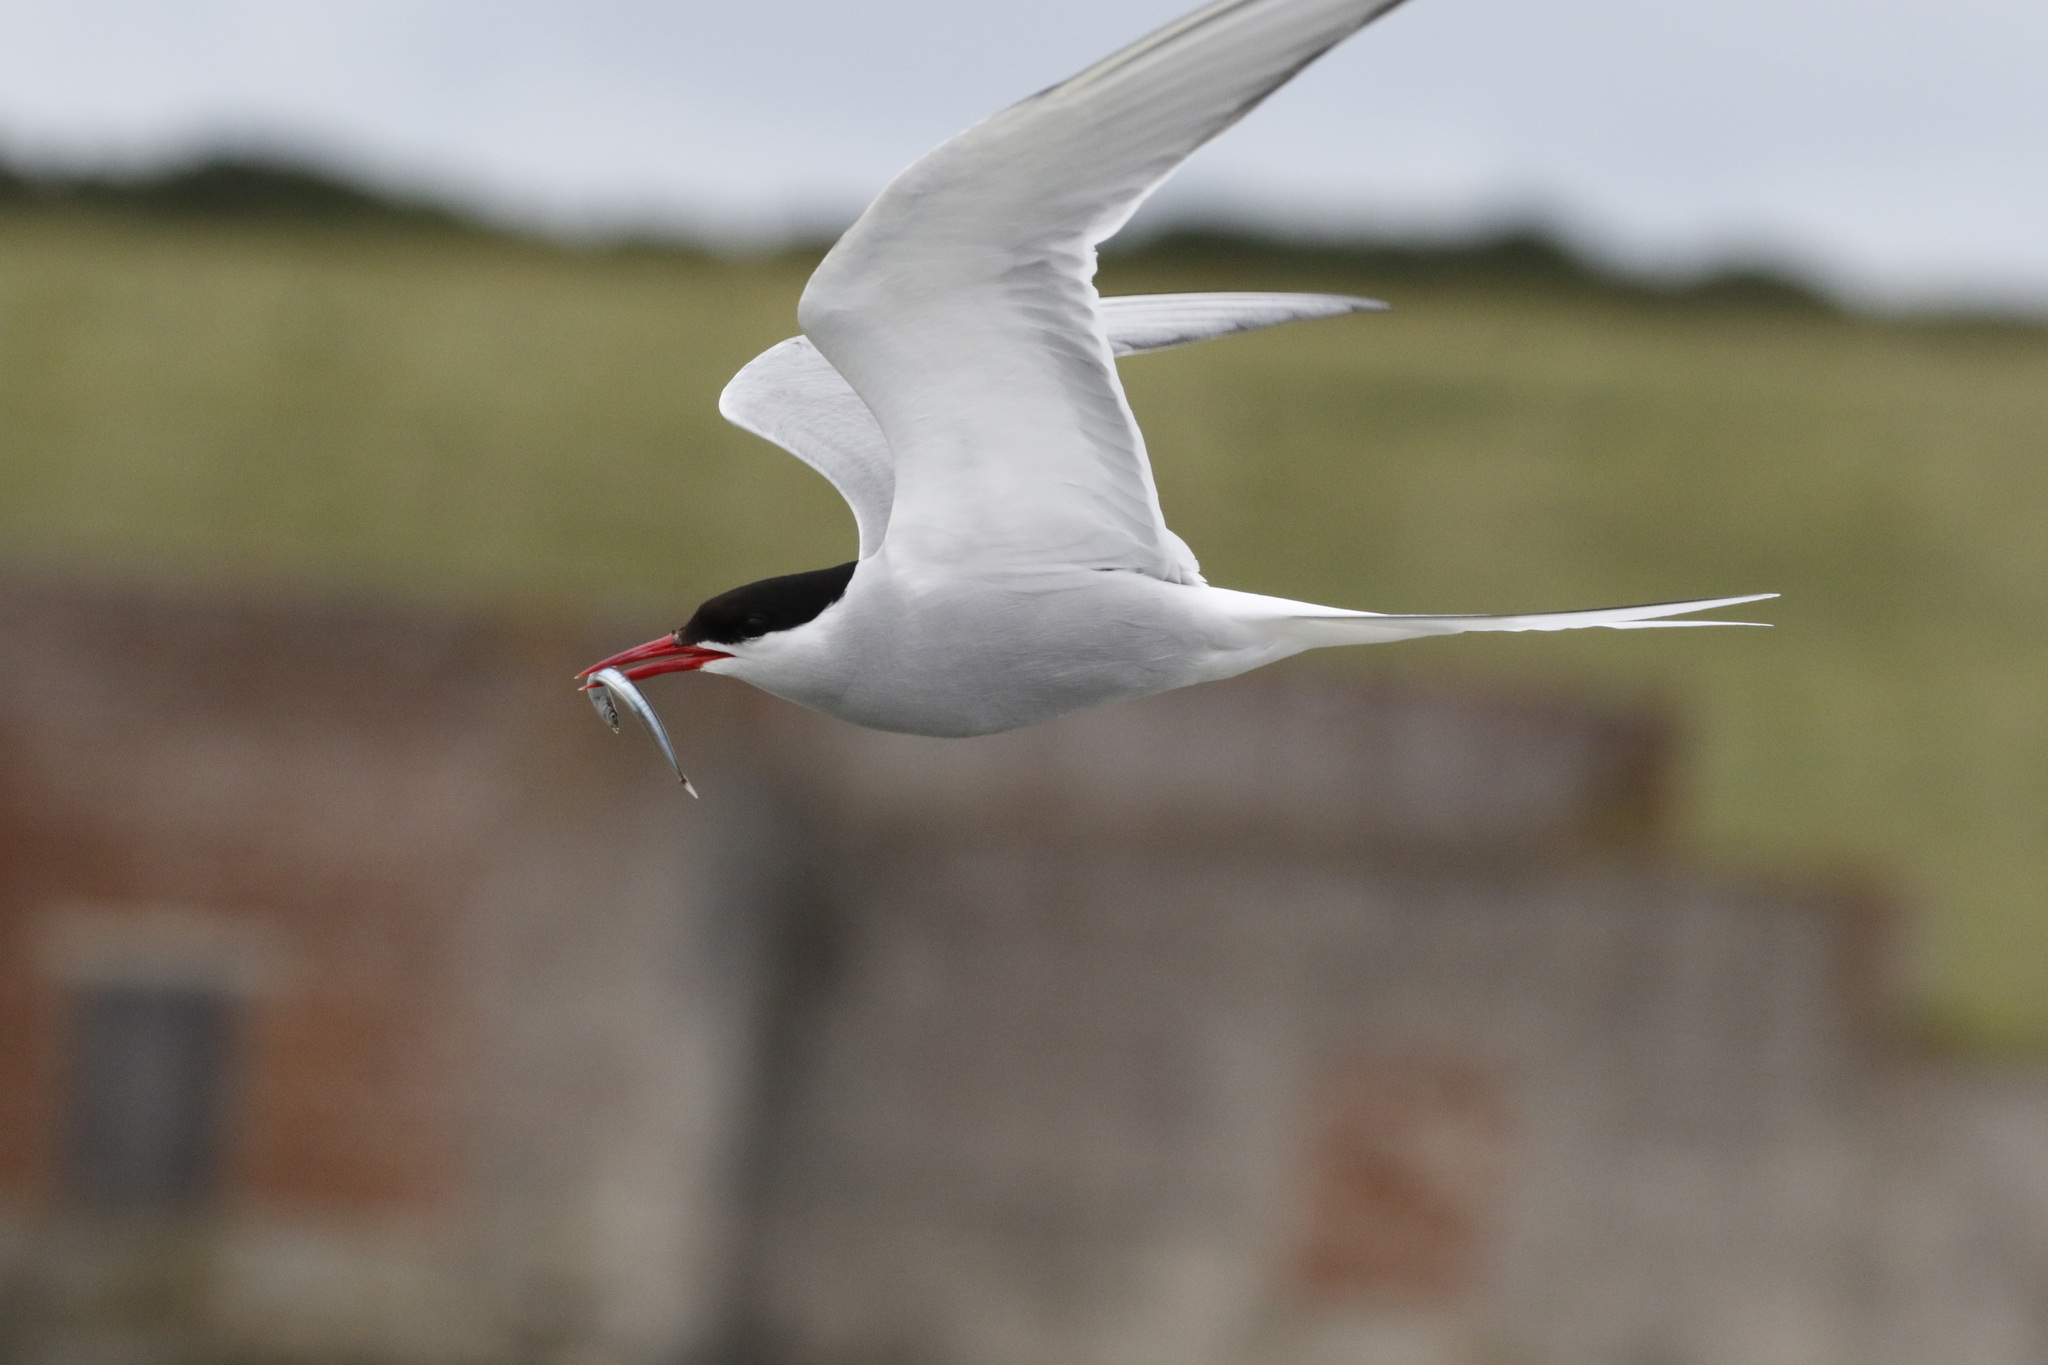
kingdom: Animalia
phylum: Chordata
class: Aves
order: Charadriiformes
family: Laridae
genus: Sterna
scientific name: Sterna paradisaea
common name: Arctic tern
